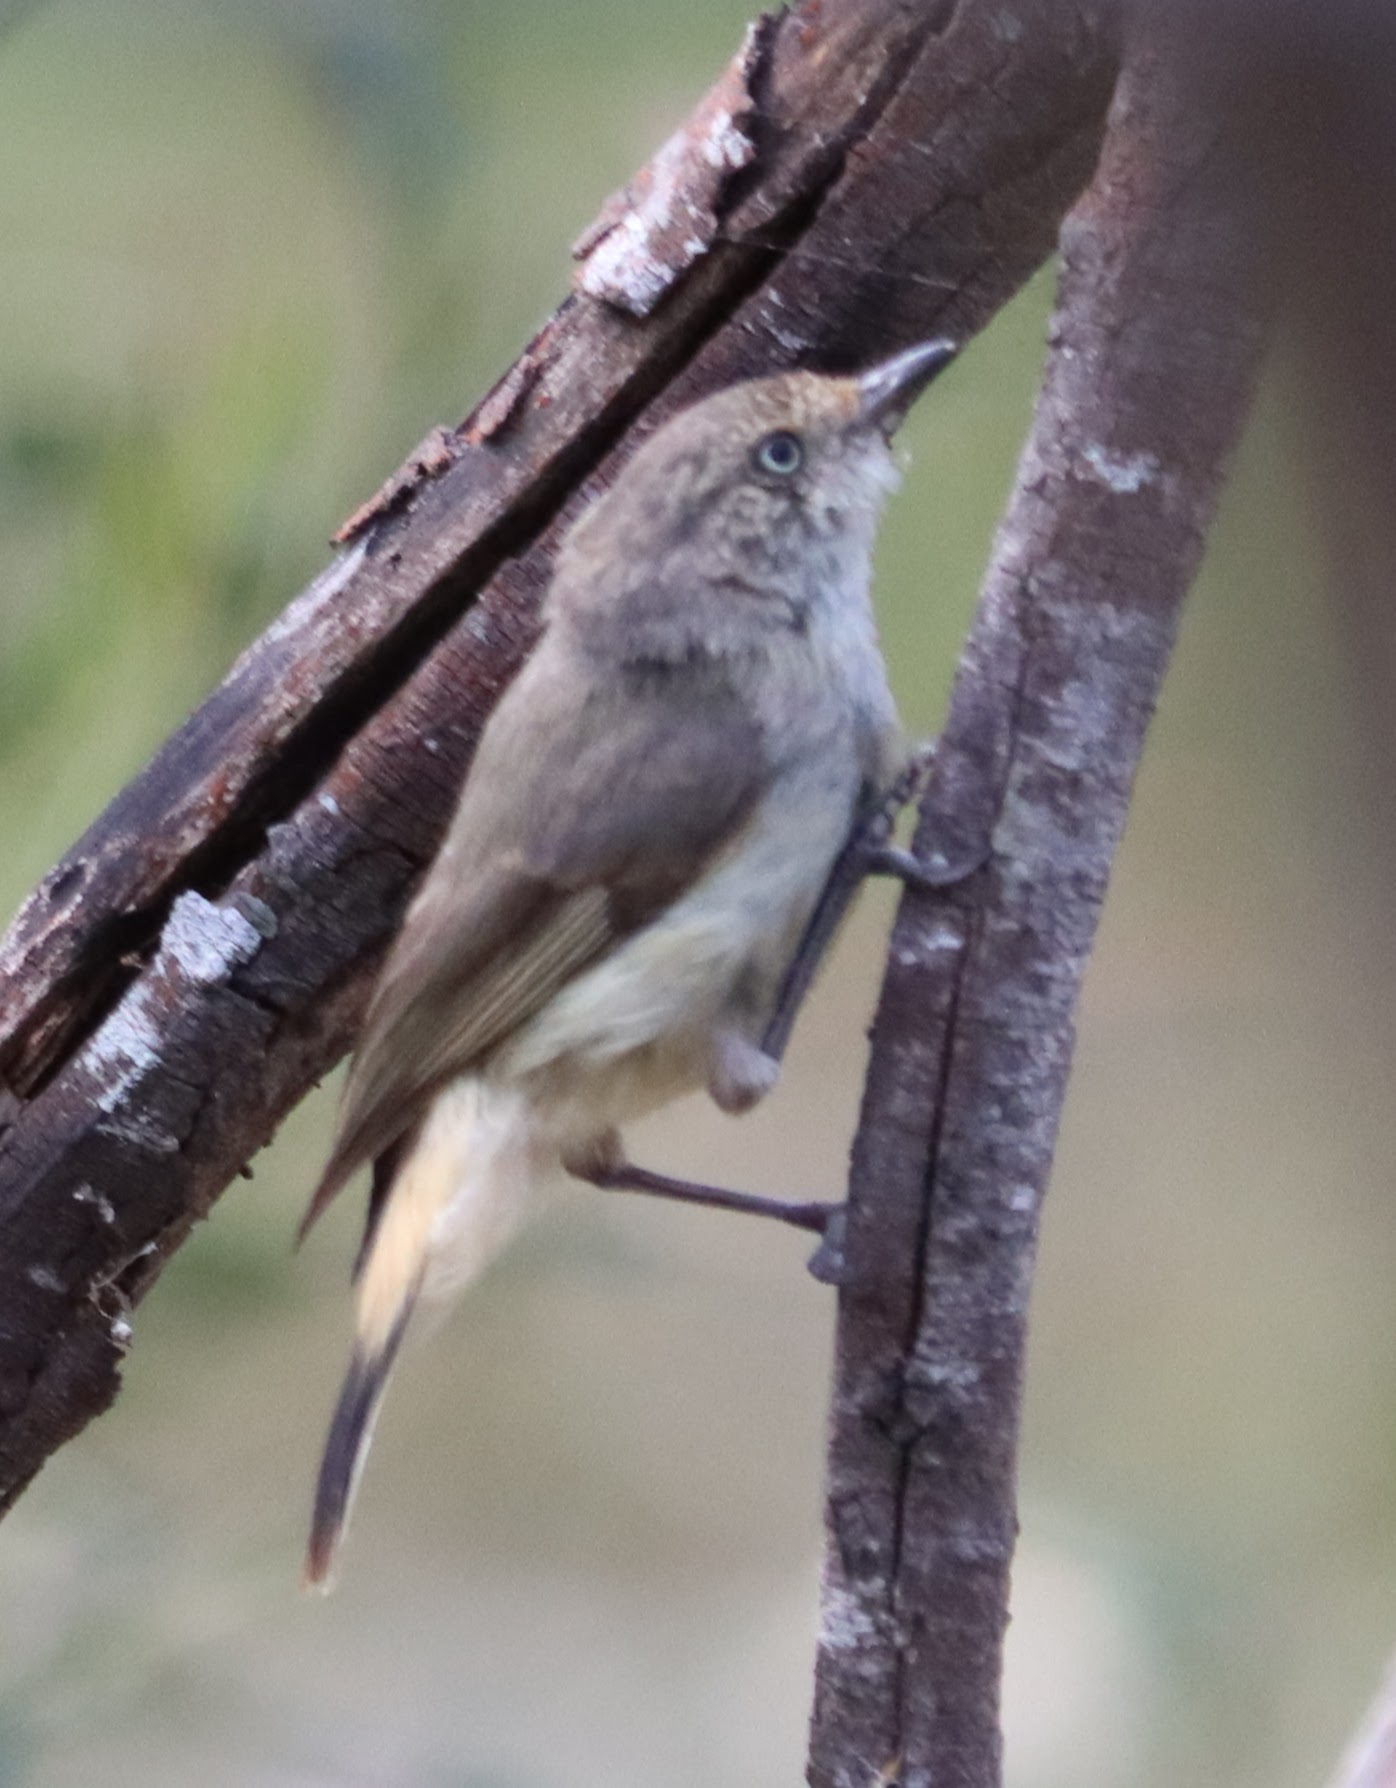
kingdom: Animalia
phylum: Chordata
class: Aves
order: Passeriformes
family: Acanthizidae
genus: Acanthiza
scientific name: Acanthiza reguloides
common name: Buff-rumped thornbill
